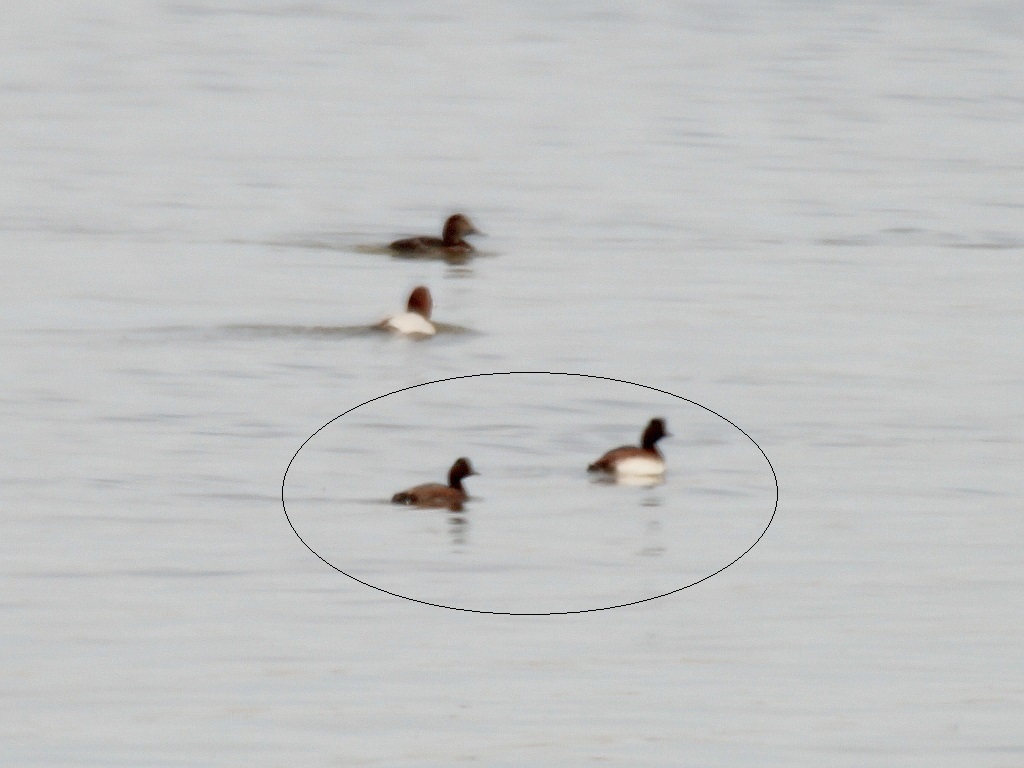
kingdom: Animalia
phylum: Chordata
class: Aves
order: Podicipediformes
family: Podicipedidae
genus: Podiceps
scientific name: Podiceps nigricollis
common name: Black-necked grebe
